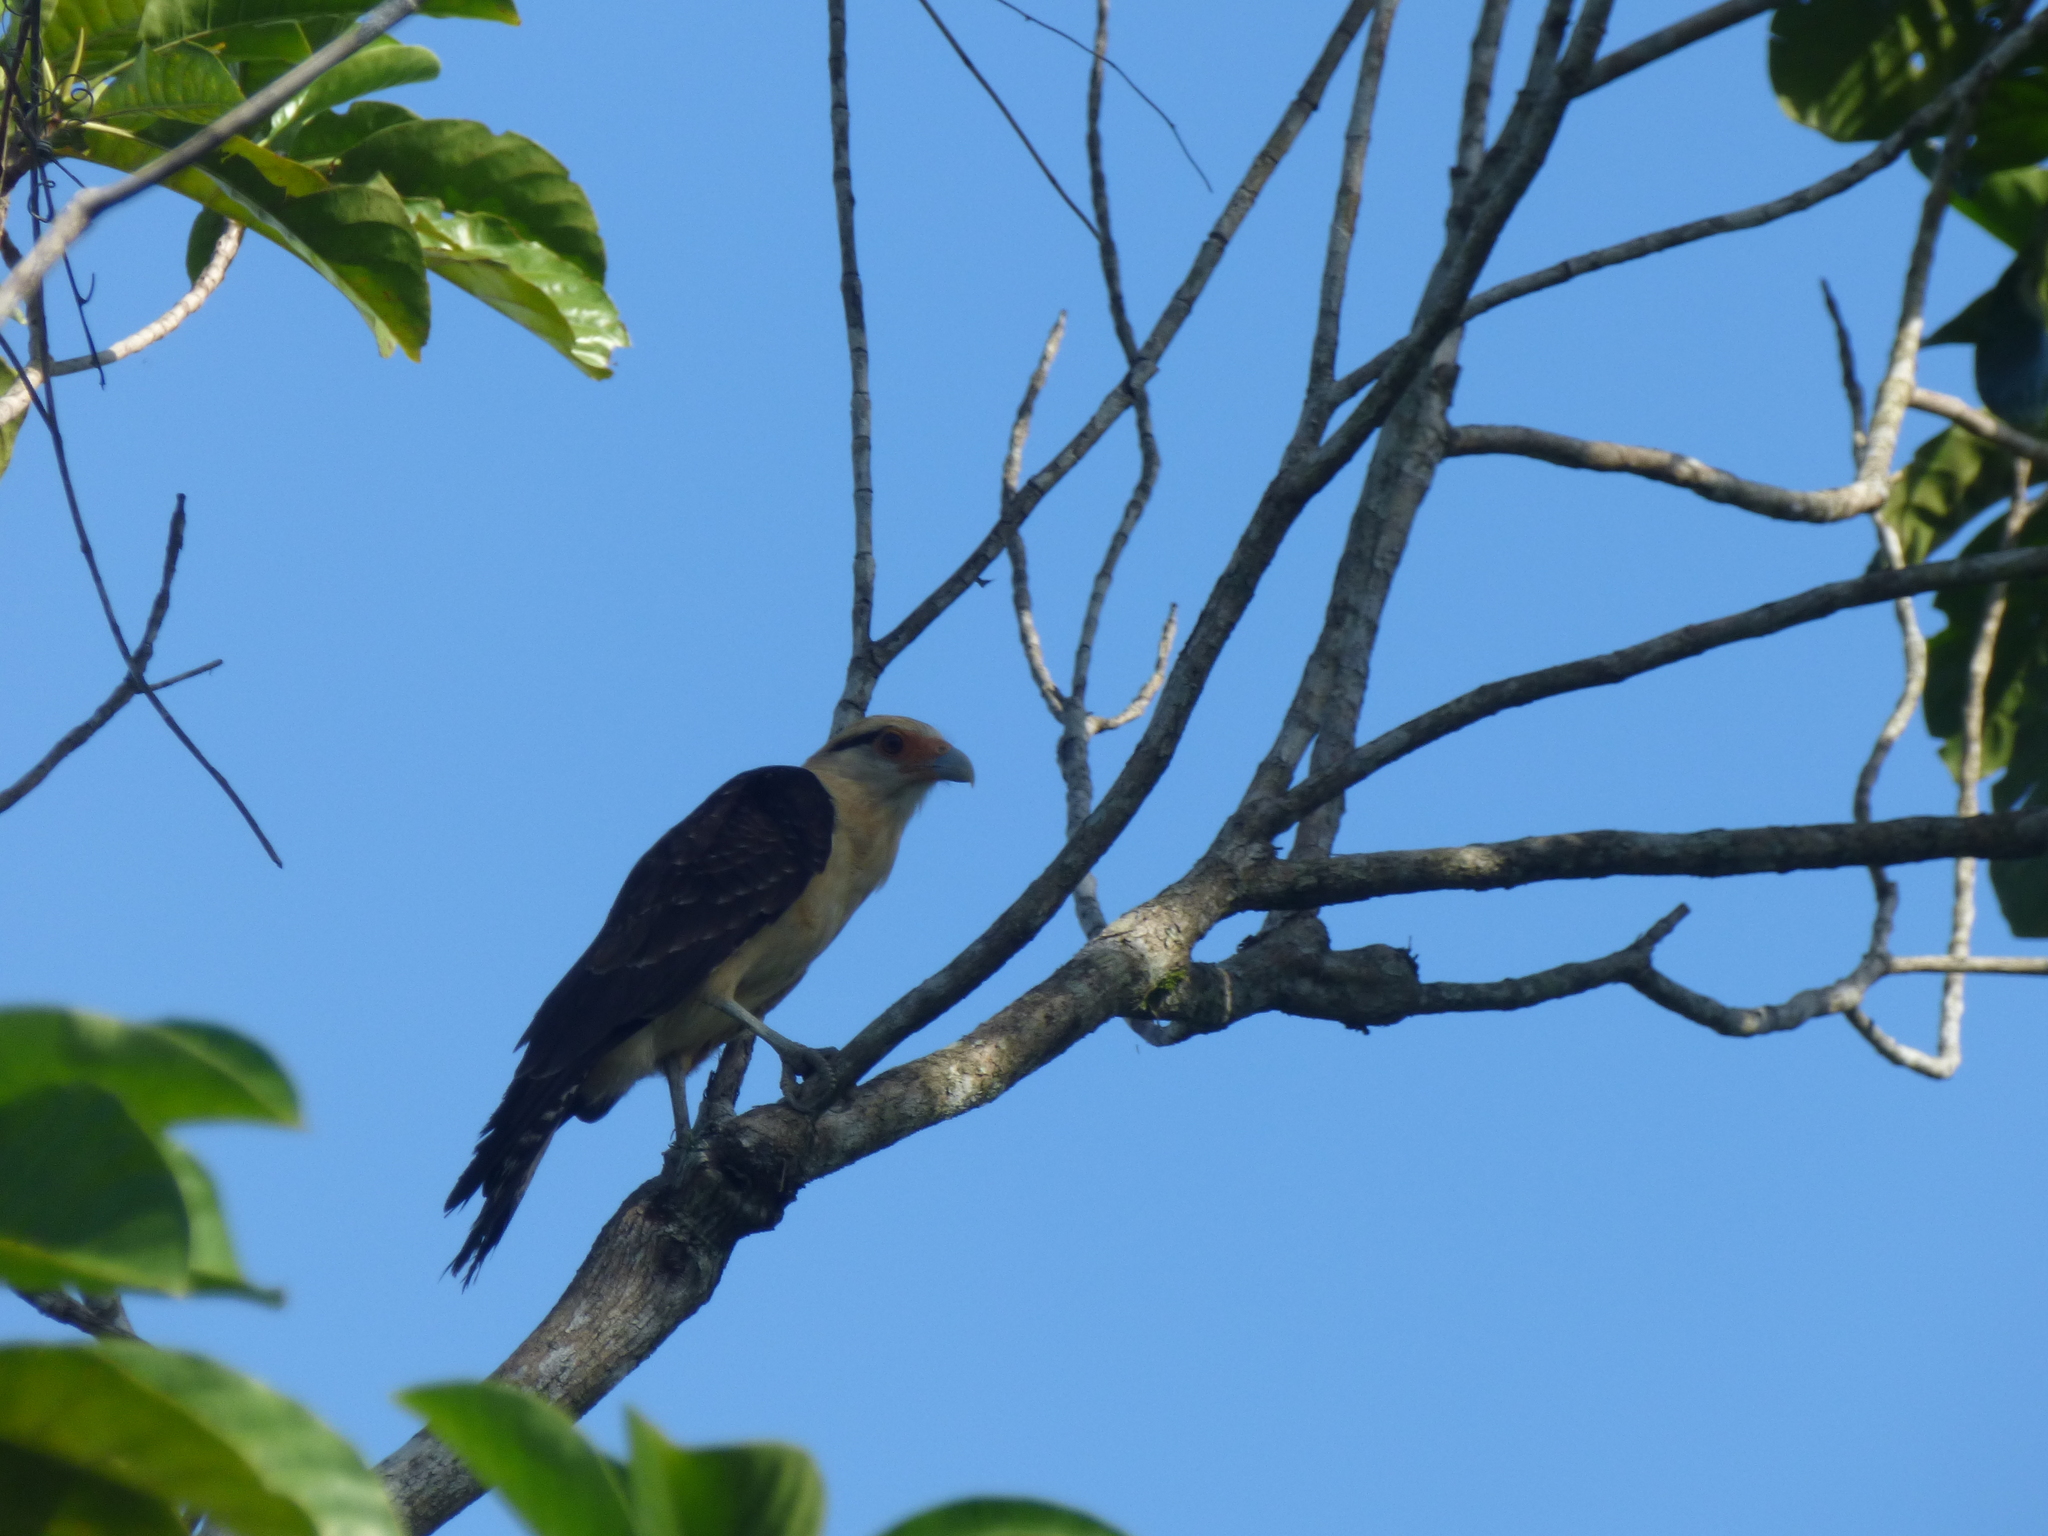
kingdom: Animalia
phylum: Chordata
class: Aves
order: Falconiformes
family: Falconidae
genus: Daptrius
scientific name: Daptrius
